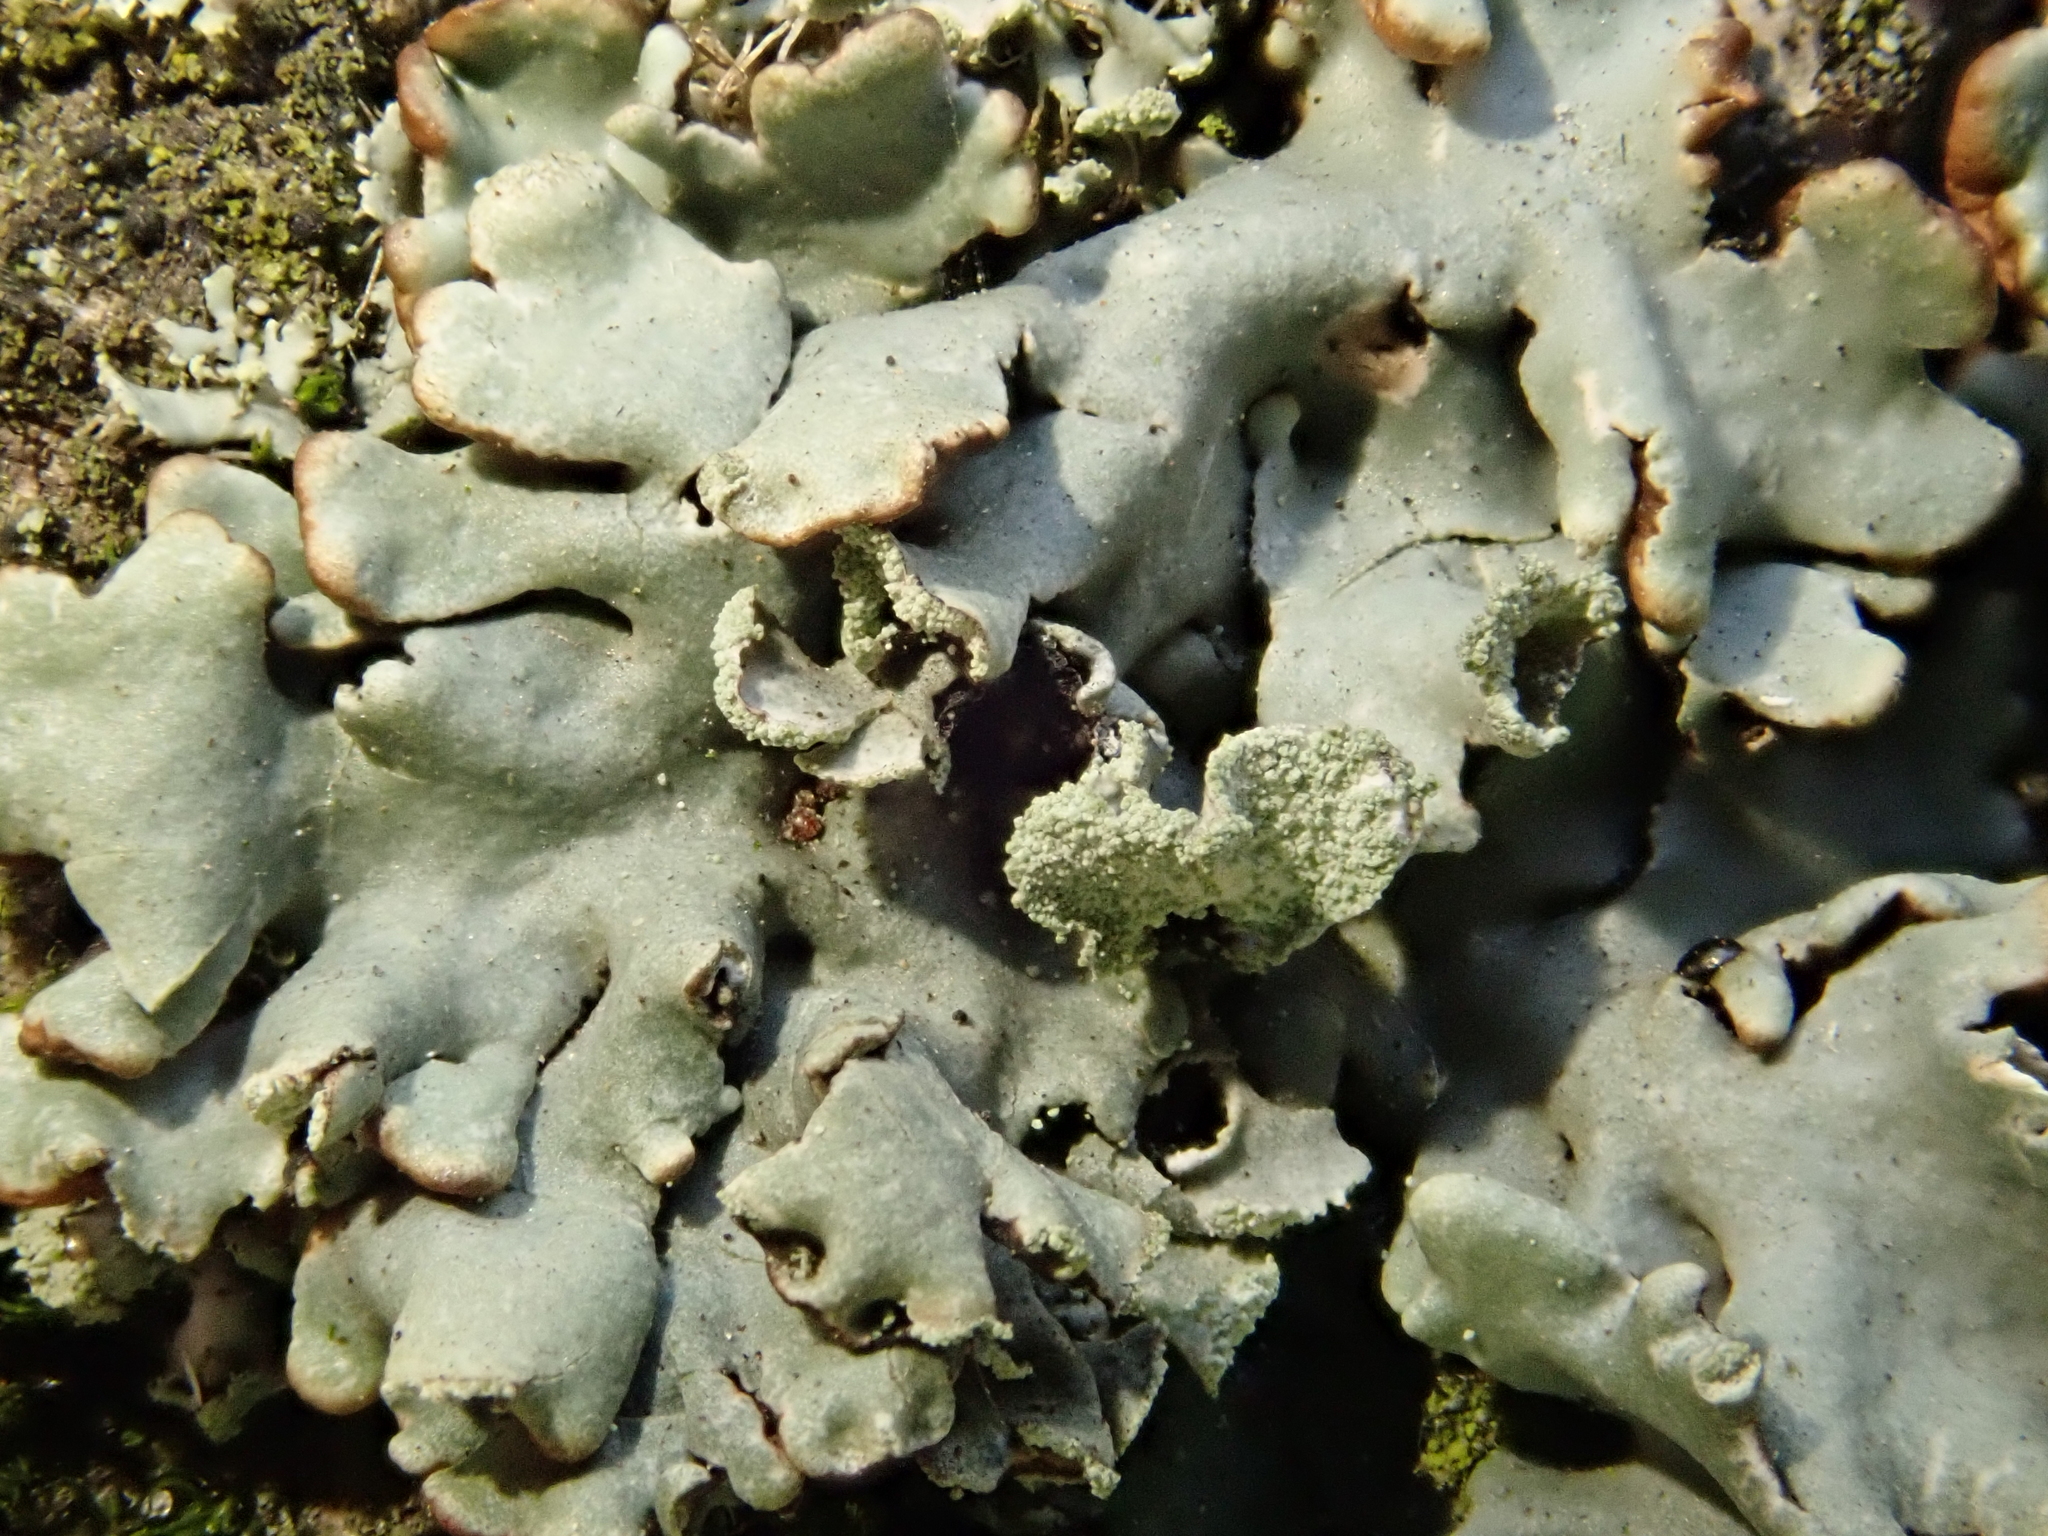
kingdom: Fungi
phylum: Ascomycota
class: Lecanoromycetes
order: Lecanorales
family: Parmeliaceae
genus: Hypogymnia
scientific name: Hypogymnia physodes
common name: Dark crottle
